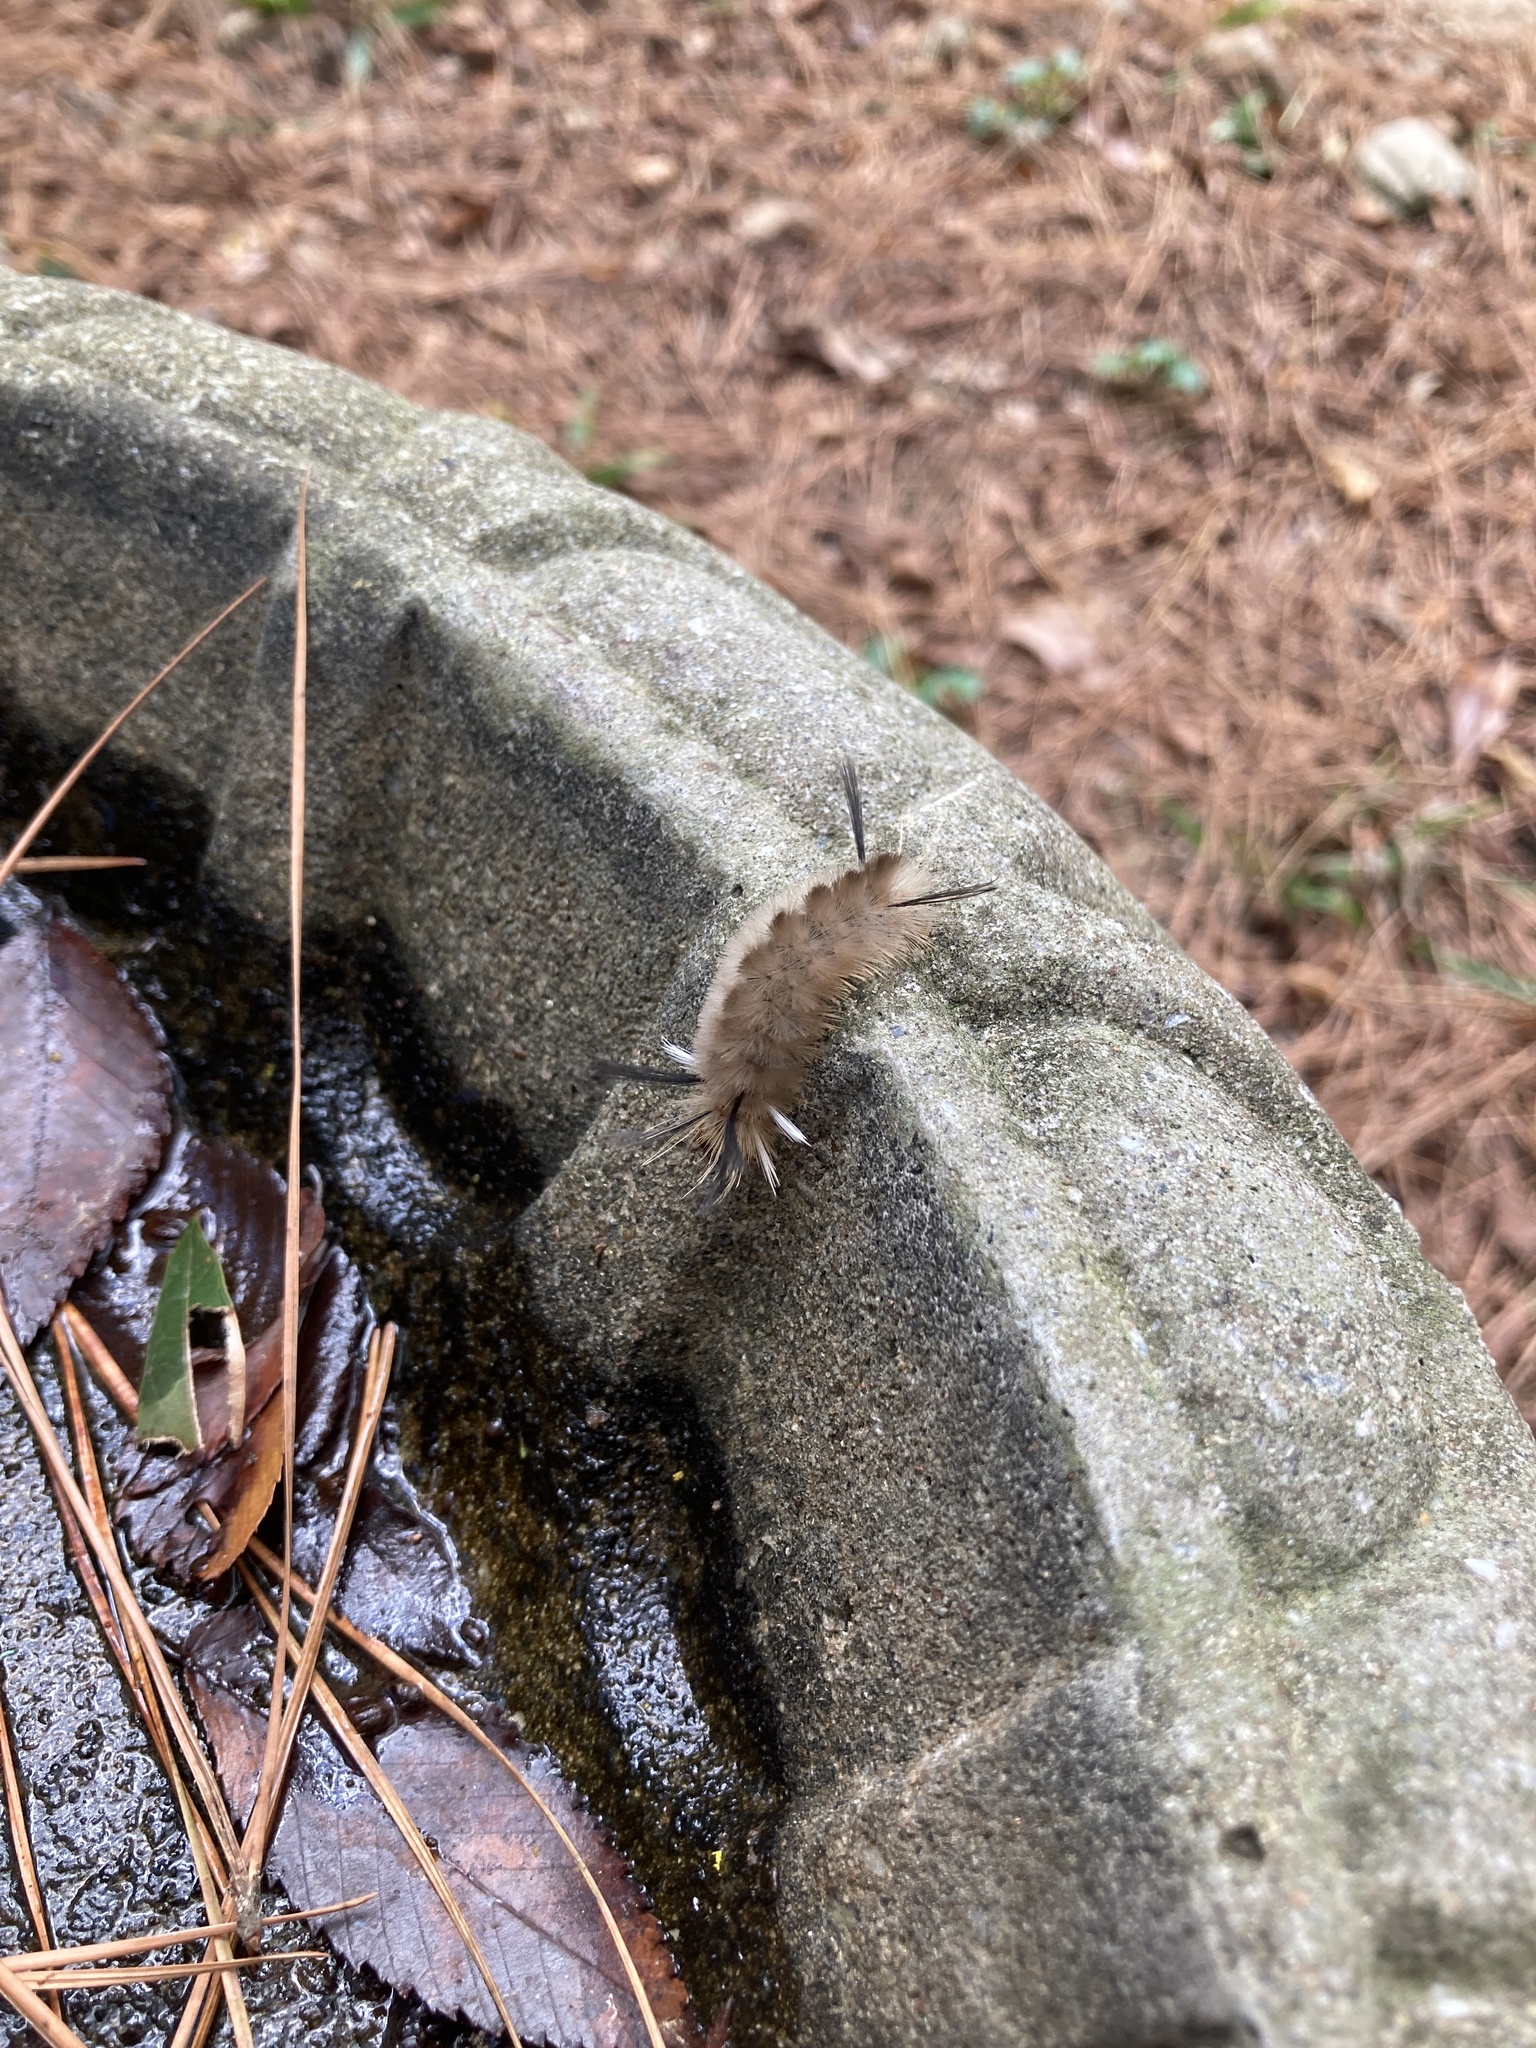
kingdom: Animalia
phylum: Arthropoda
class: Insecta
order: Lepidoptera
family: Erebidae
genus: Halysidota
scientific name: Halysidota tessellaris
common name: Banded tussock moth
